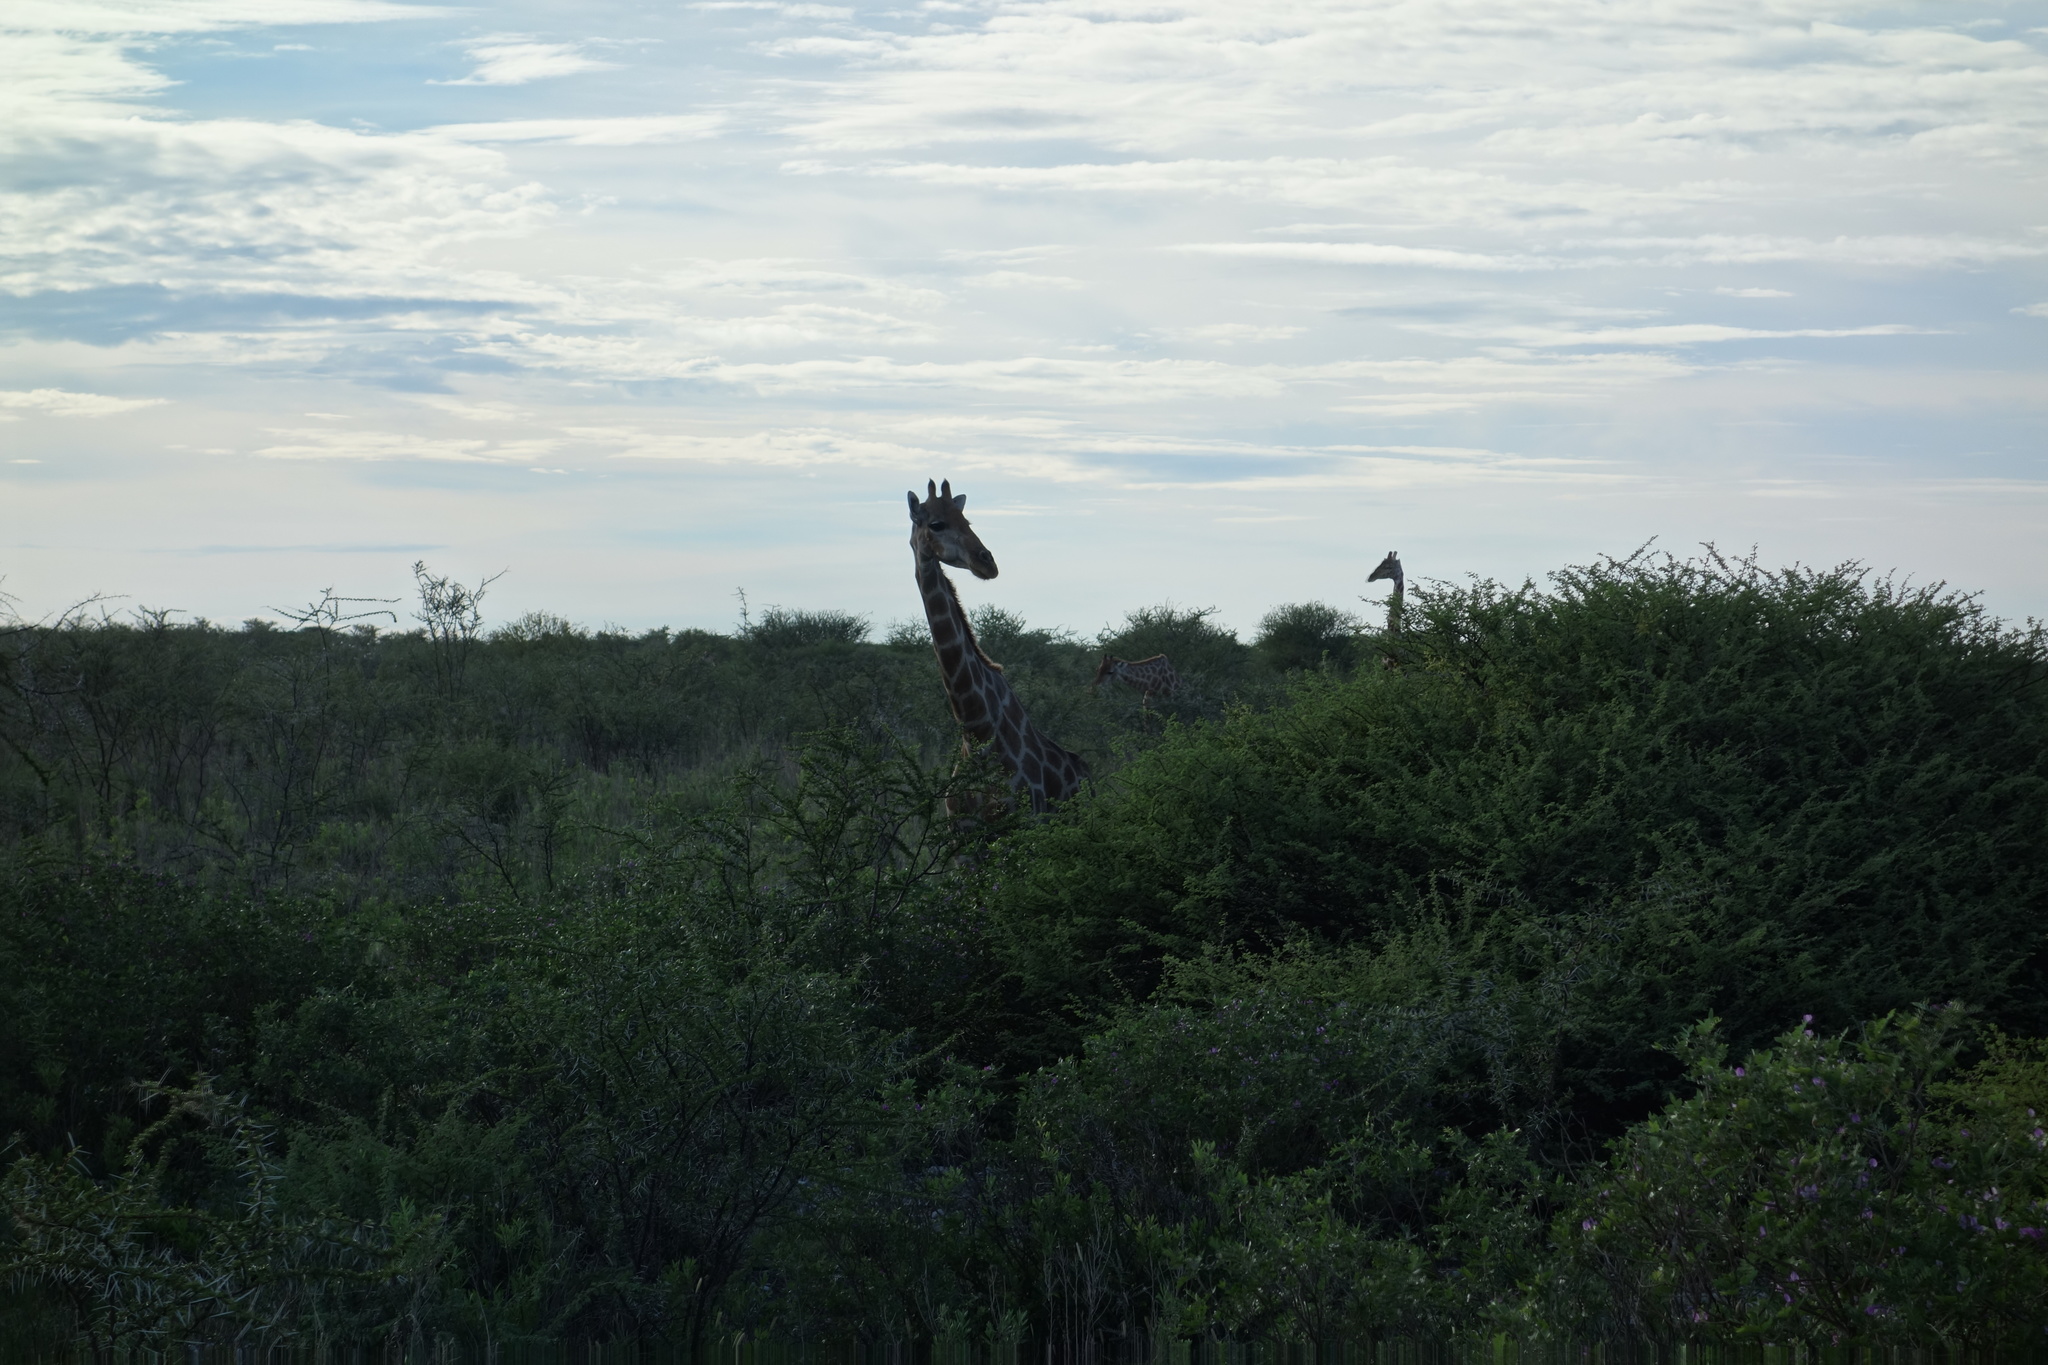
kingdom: Animalia
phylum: Chordata
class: Mammalia
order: Artiodactyla
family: Giraffidae
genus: Giraffa
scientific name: Giraffa giraffa
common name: Southern giraffe
